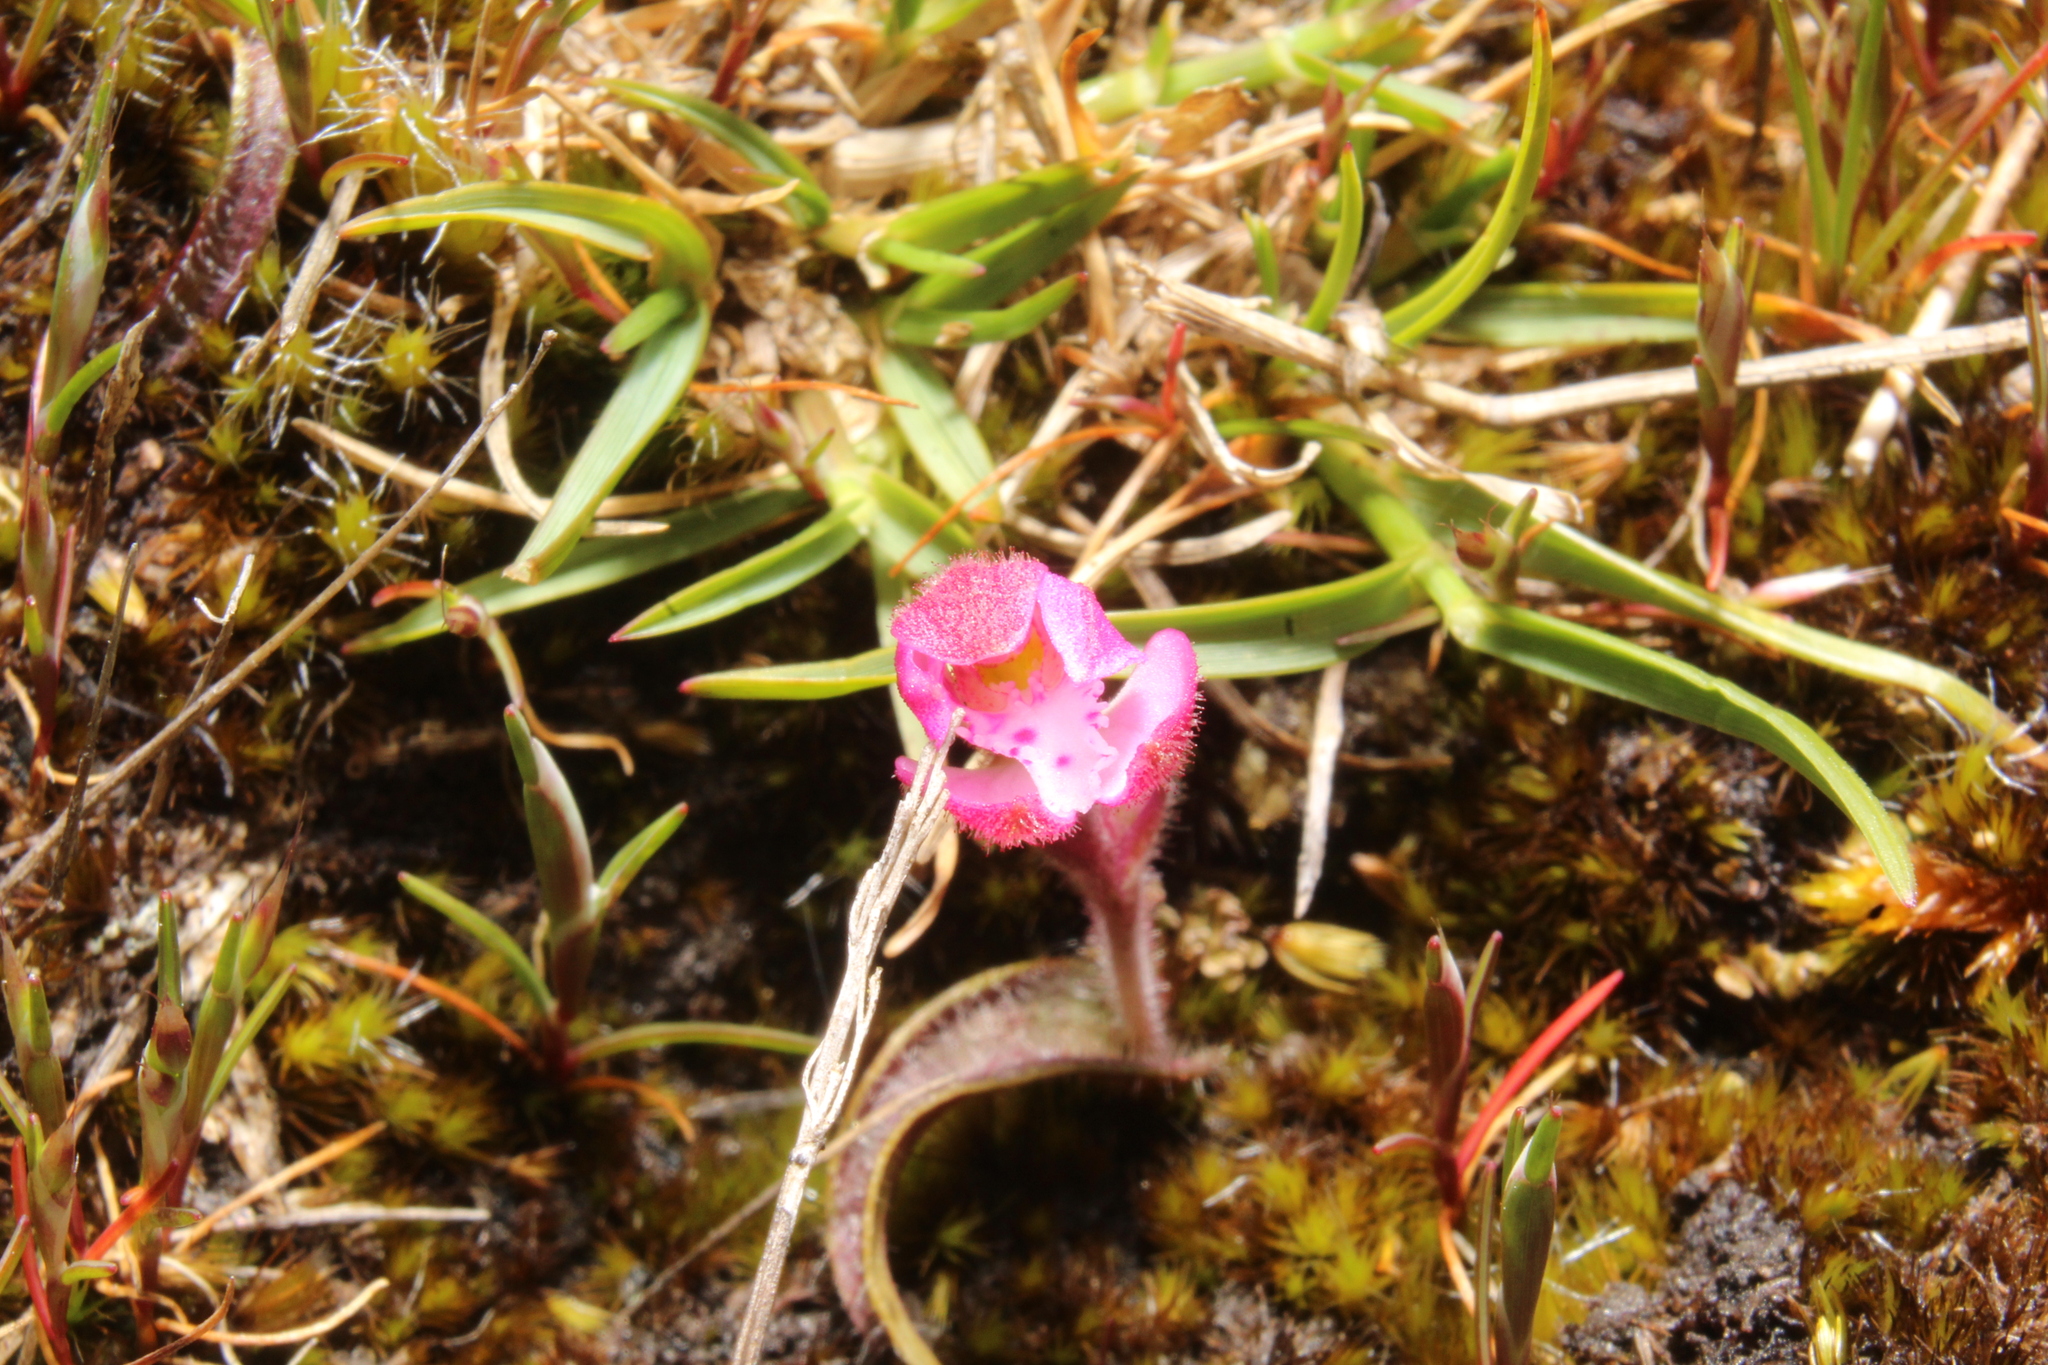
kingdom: Plantae
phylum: Tracheophyta
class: Liliopsida
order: Asparagales
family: Orchidaceae
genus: Caladenia
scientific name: Caladenia nana
